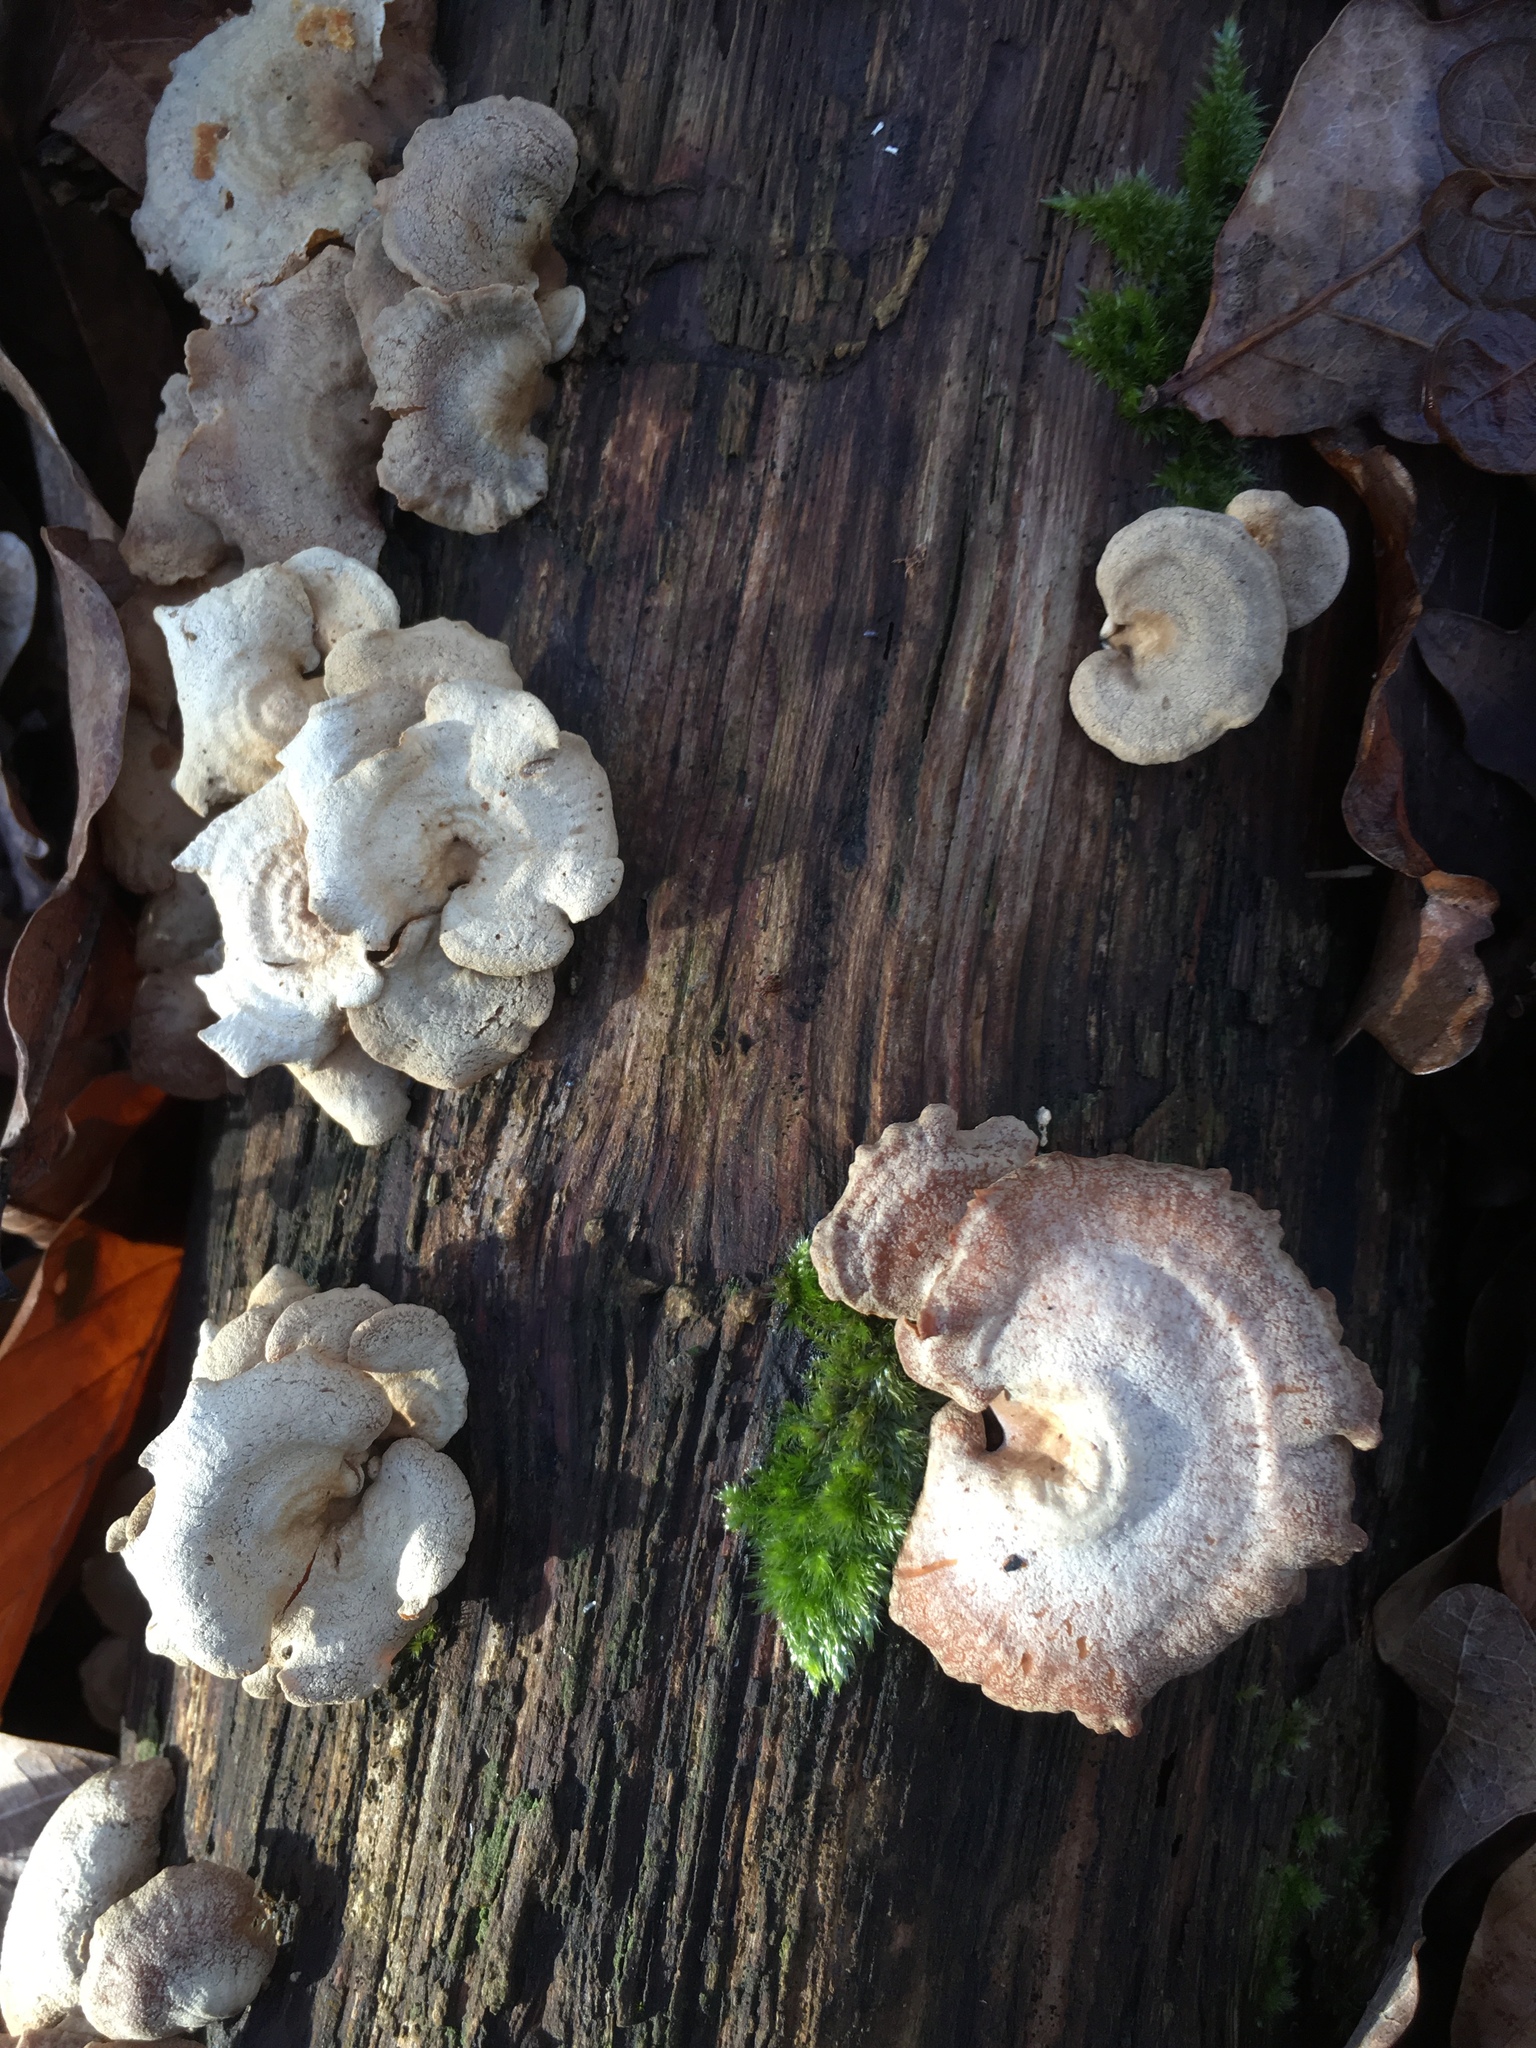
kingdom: Fungi
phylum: Basidiomycota
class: Agaricomycetes
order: Agaricales
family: Mycenaceae
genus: Panellus
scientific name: Panellus stipticus
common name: Bitter oysterling
